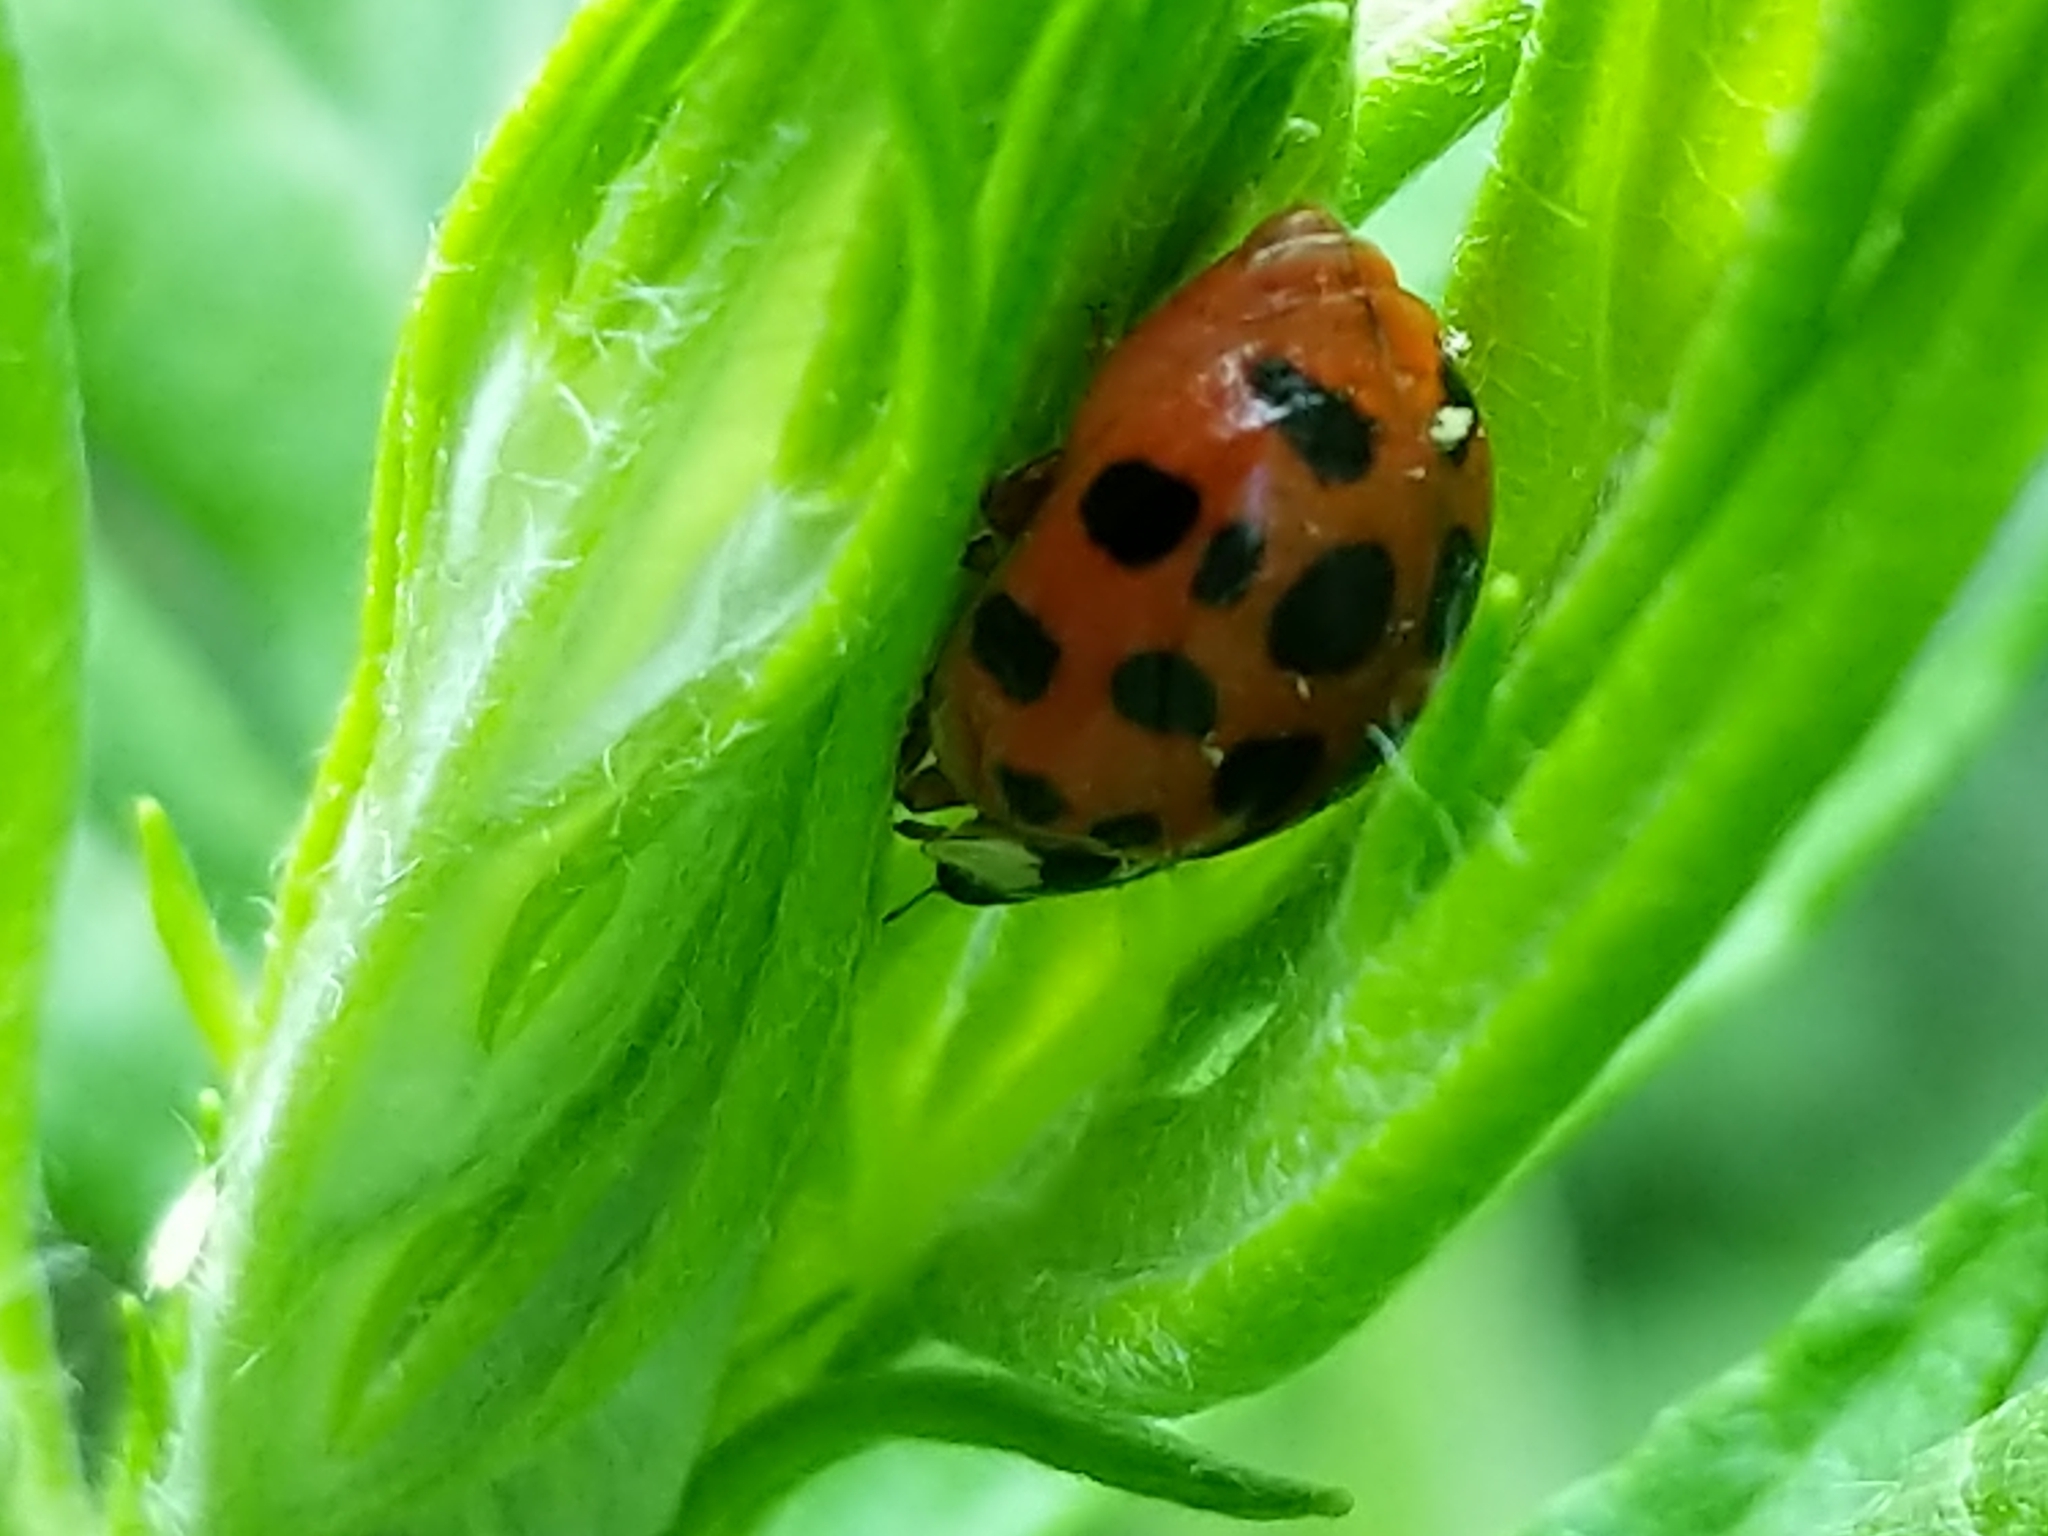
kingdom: Animalia
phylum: Arthropoda
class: Insecta
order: Coleoptera
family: Coccinellidae
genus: Harmonia
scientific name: Harmonia axyridis
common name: Harlequin ladybird
